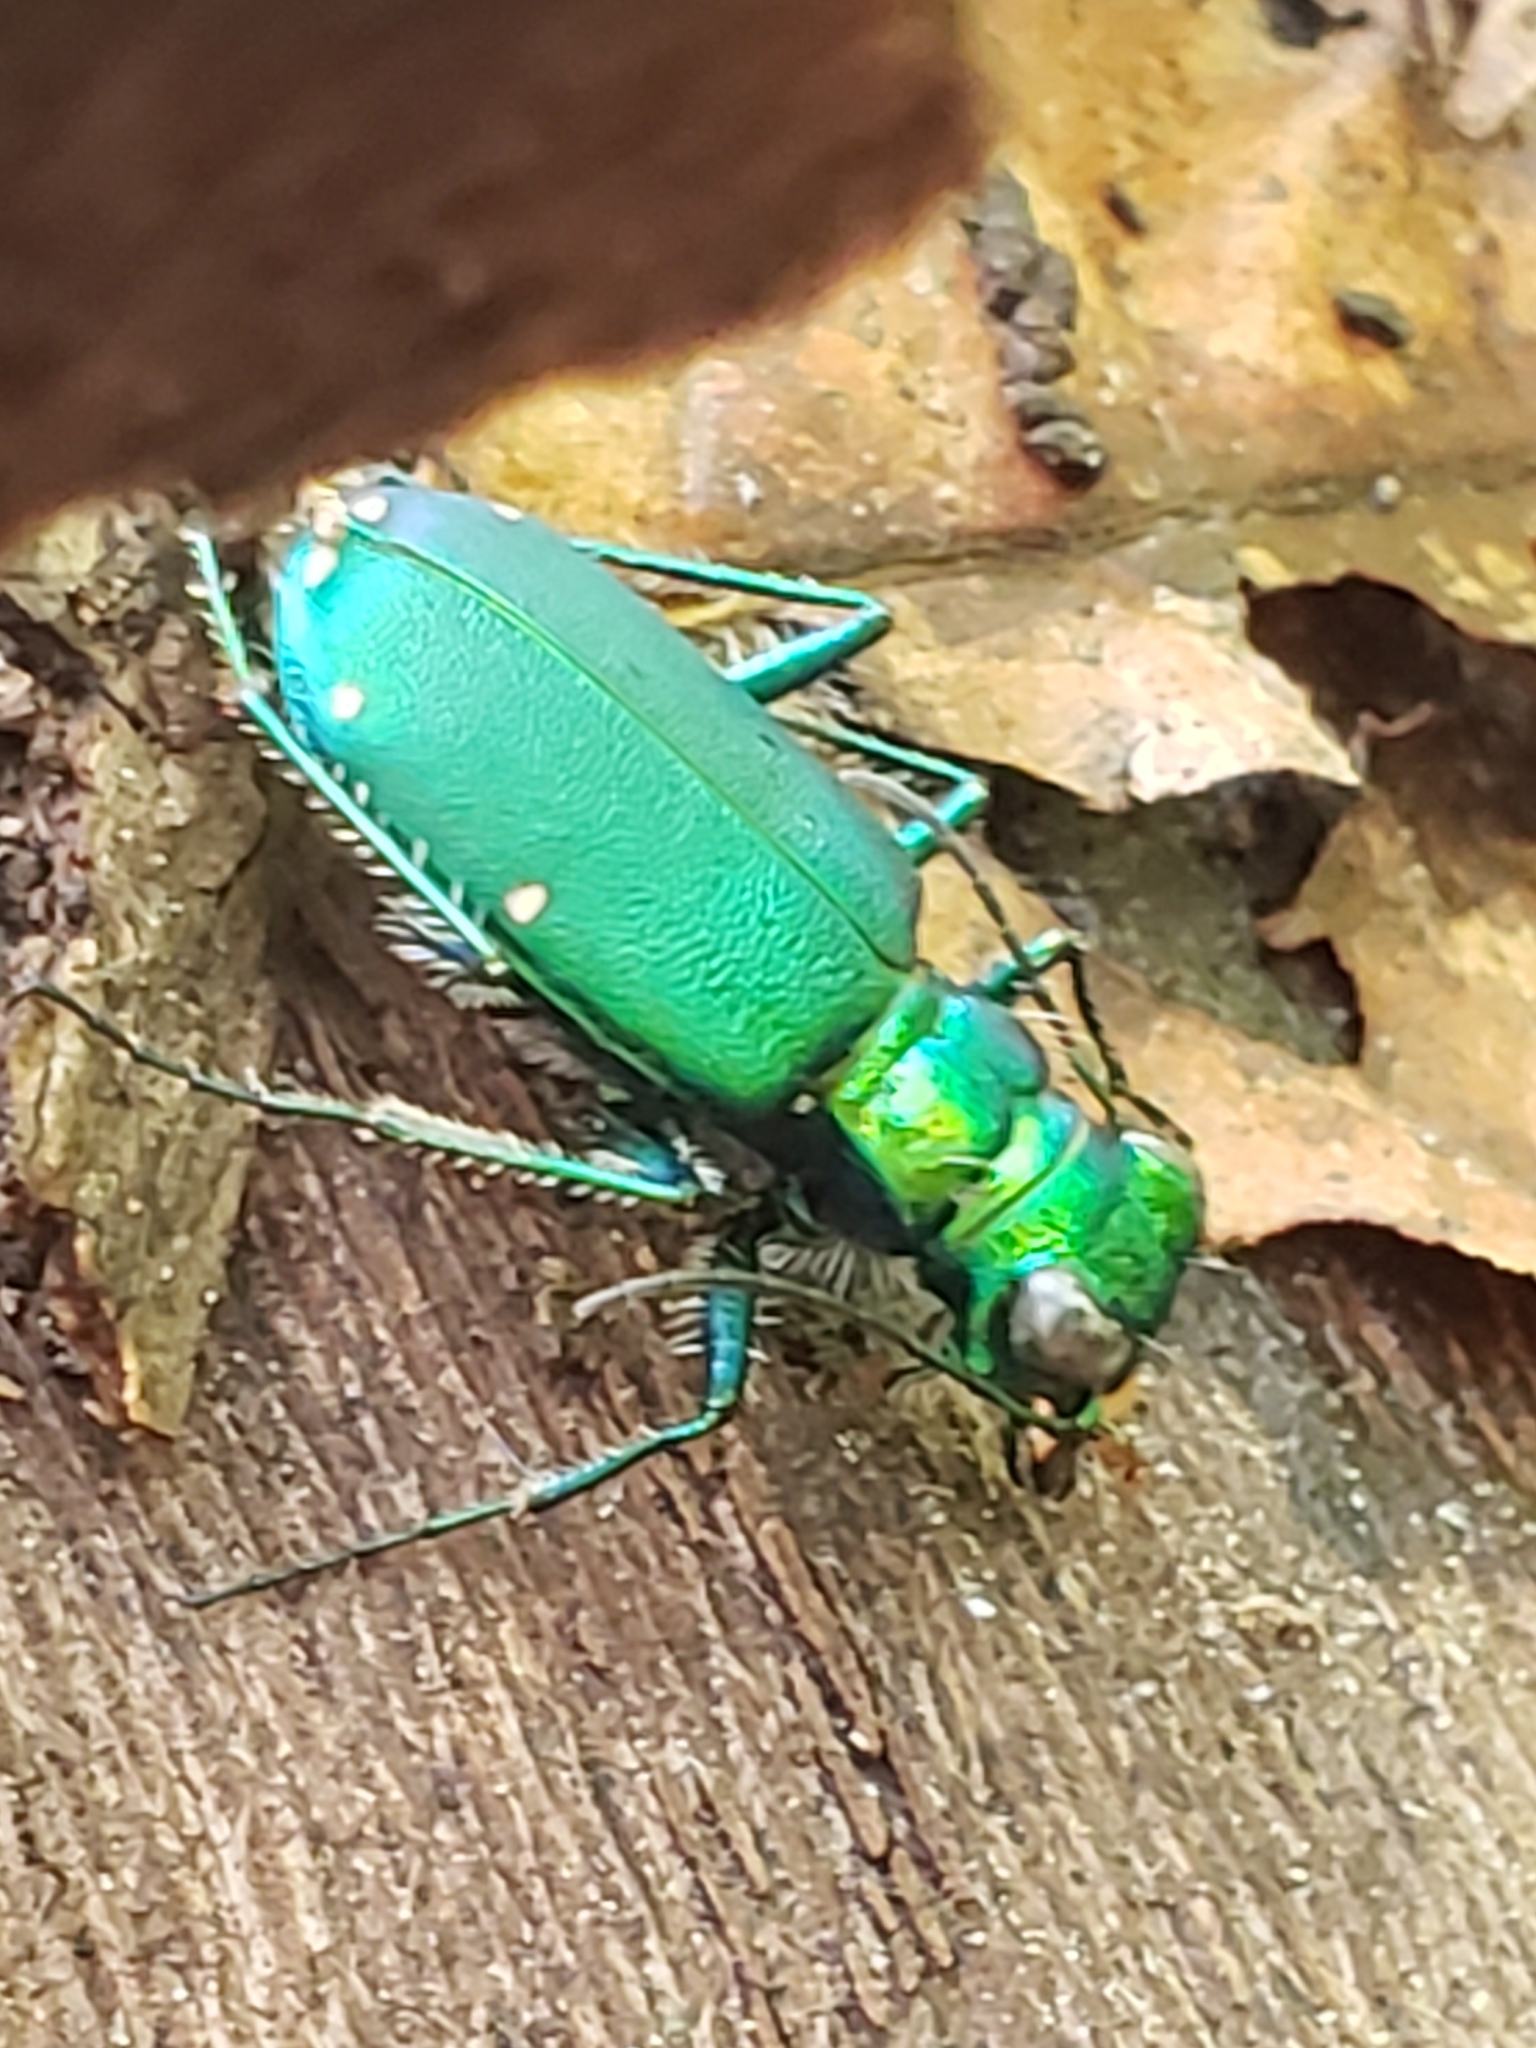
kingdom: Animalia
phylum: Arthropoda
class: Insecta
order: Coleoptera
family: Carabidae
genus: Cicindela
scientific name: Cicindela sexguttata
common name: Six-spotted tiger beetle
